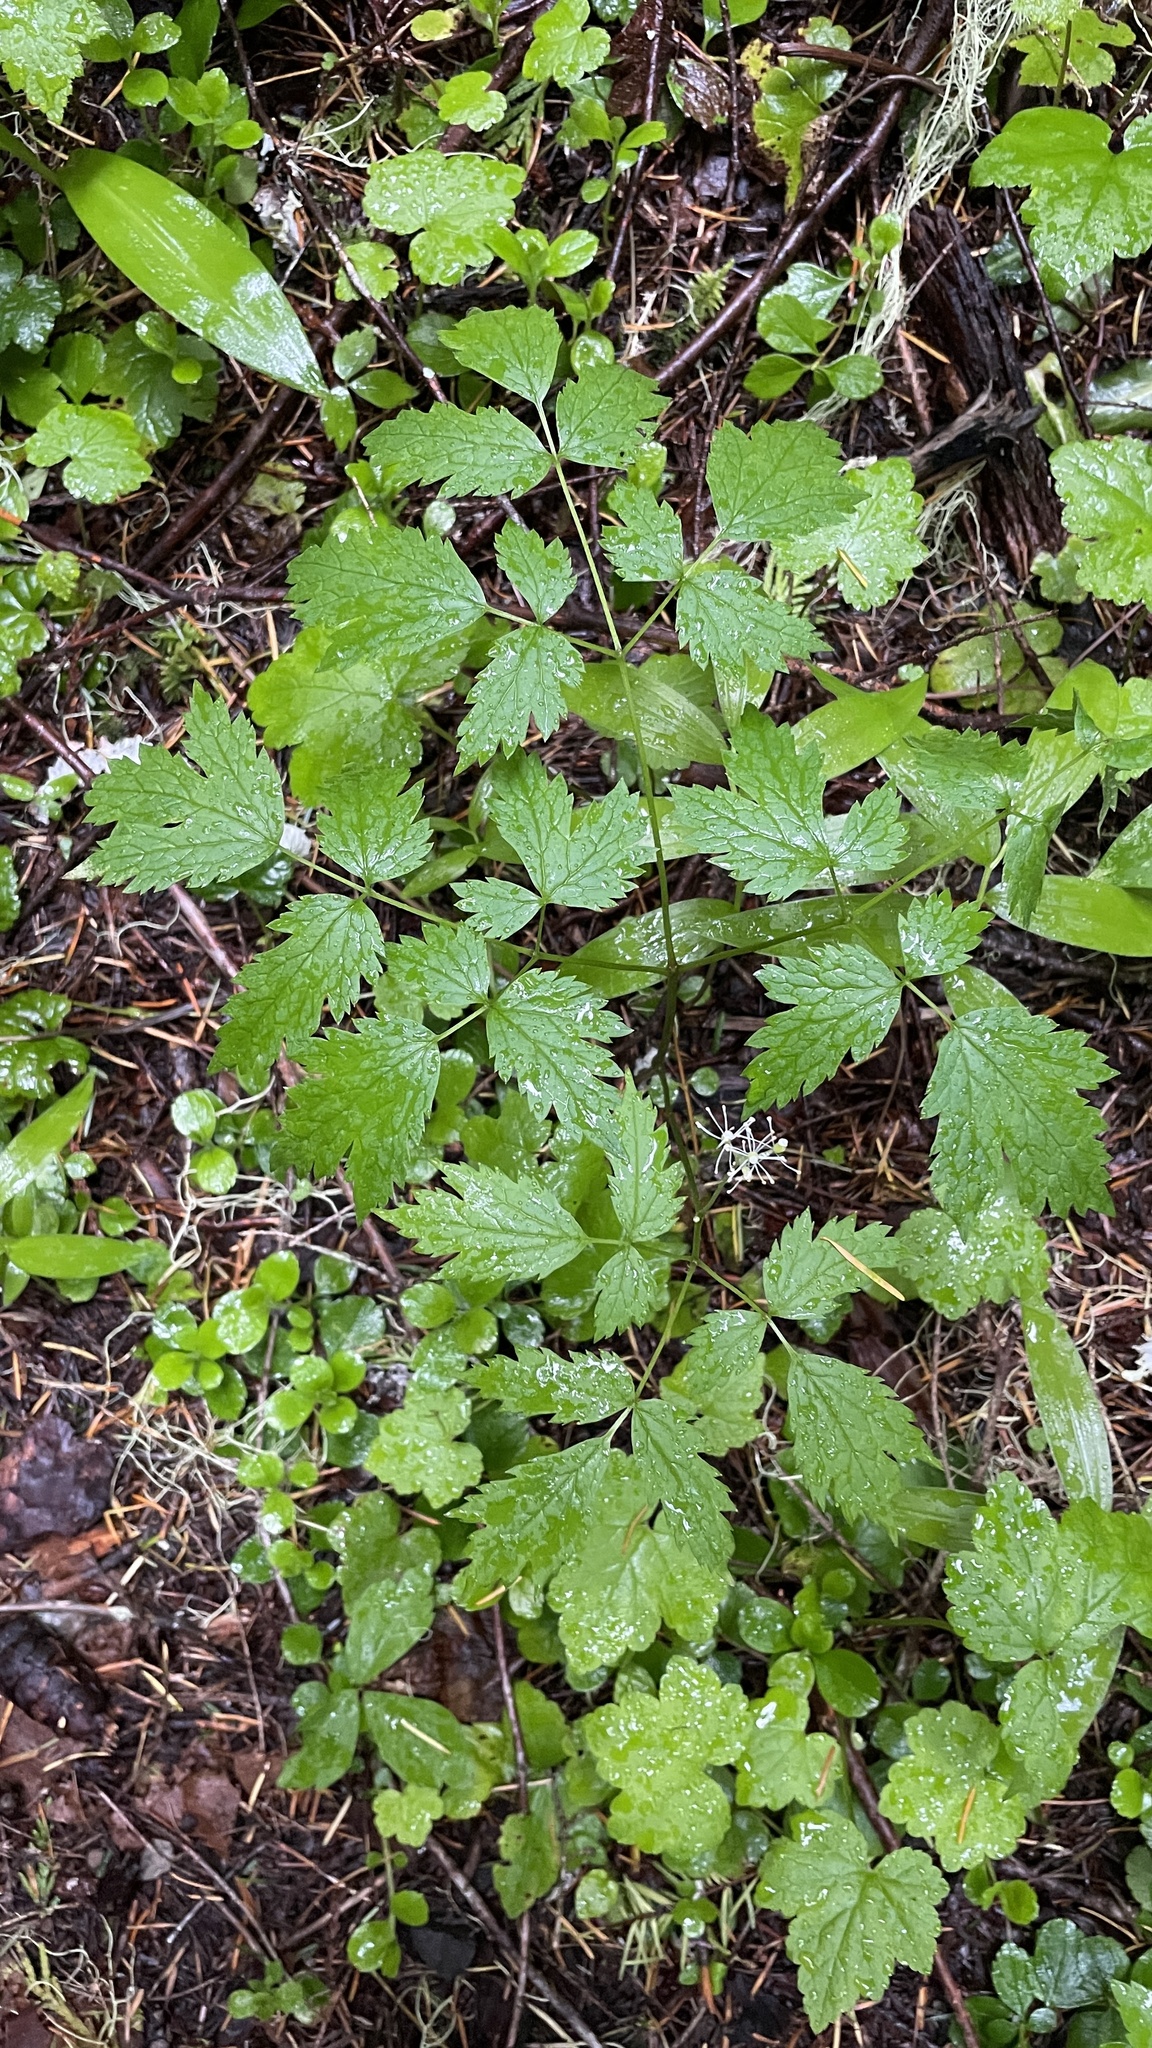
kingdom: Plantae
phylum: Tracheophyta
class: Magnoliopsida
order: Ranunculales
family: Ranunculaceae
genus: Actaea
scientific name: Actaea rubra
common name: Red baneberry
